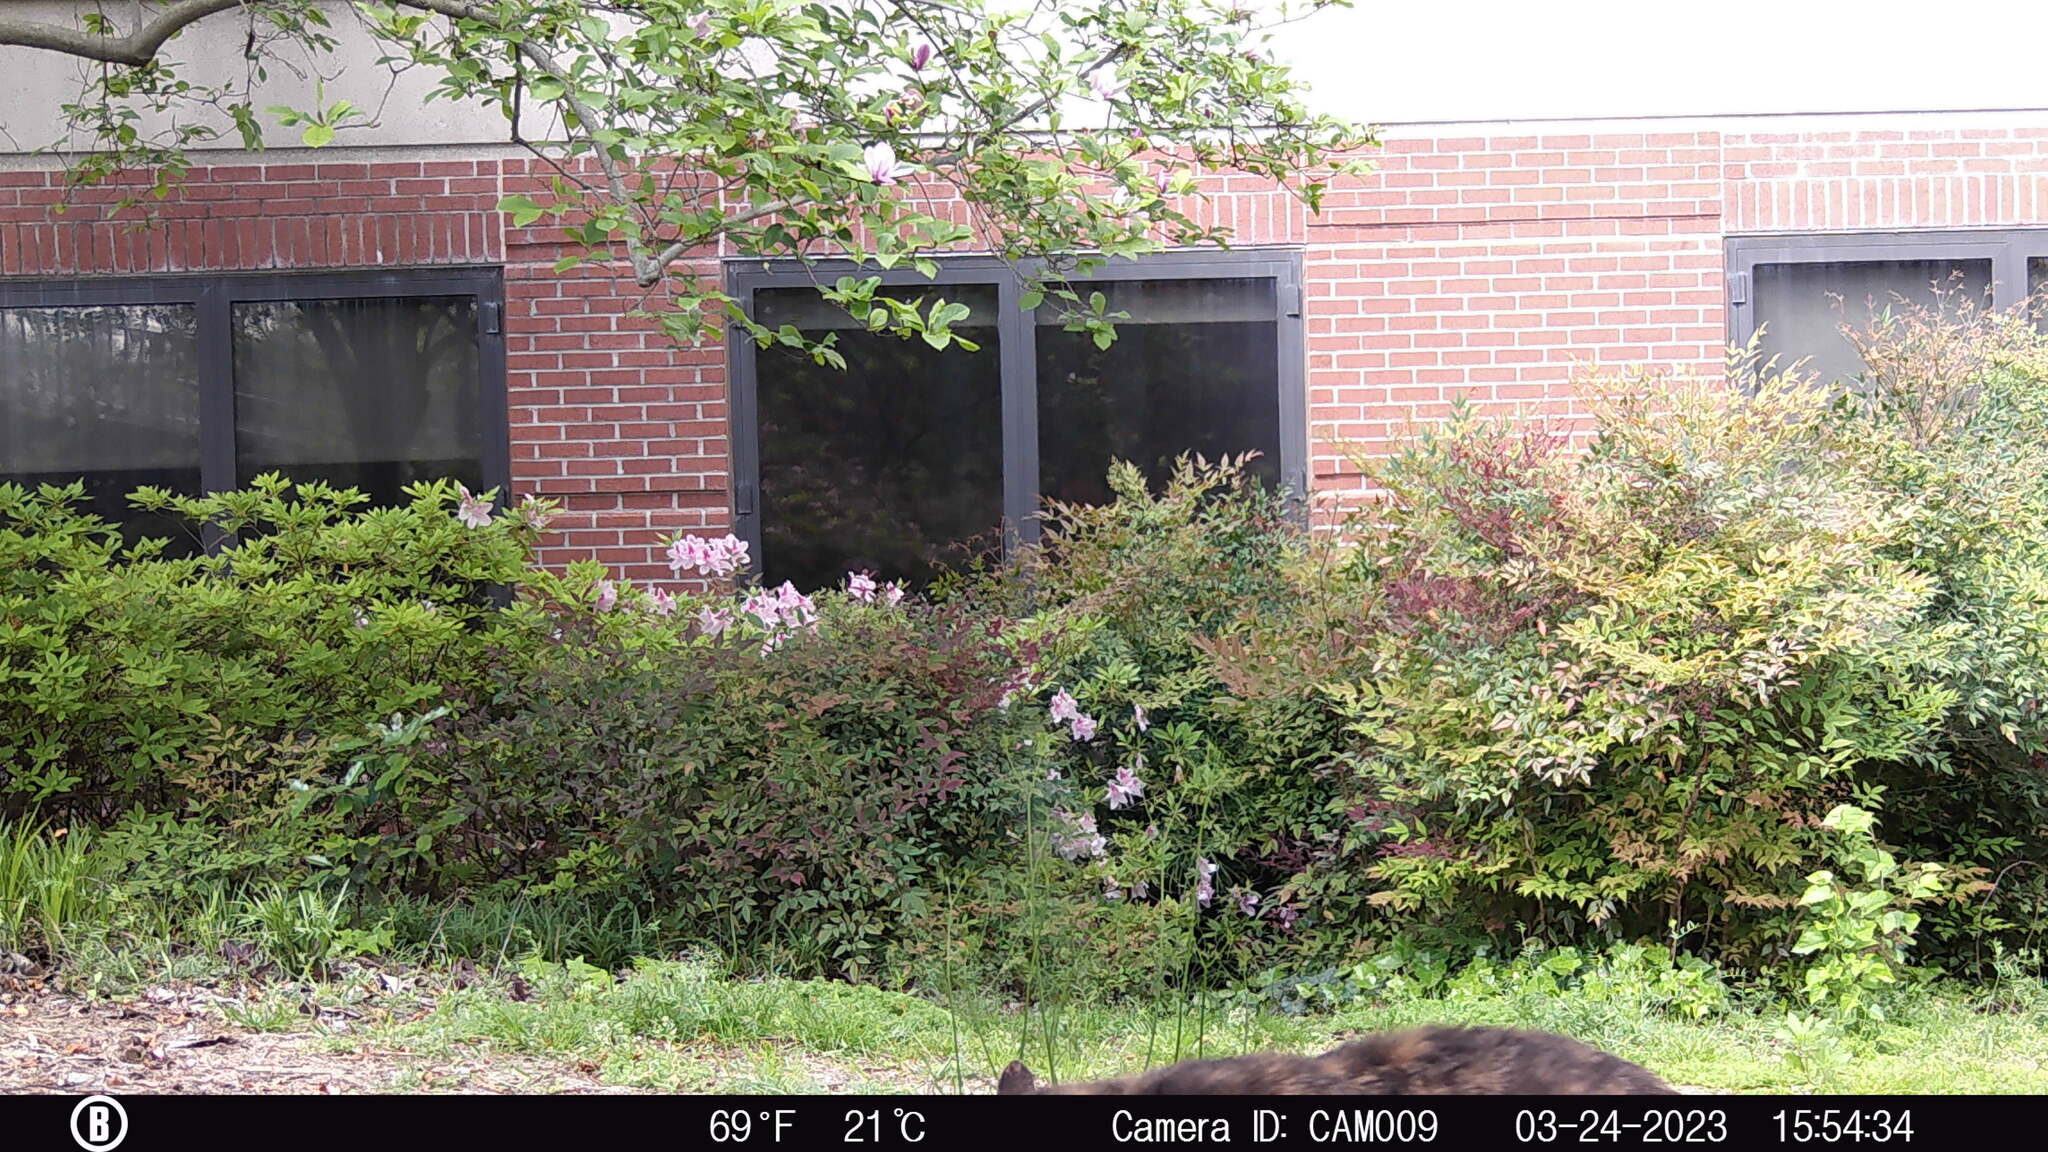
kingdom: Animalia
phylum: Chordata
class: Mammalia
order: Carnivora
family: Felidae
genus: Felis
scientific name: Felis catus
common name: Domestic cat
